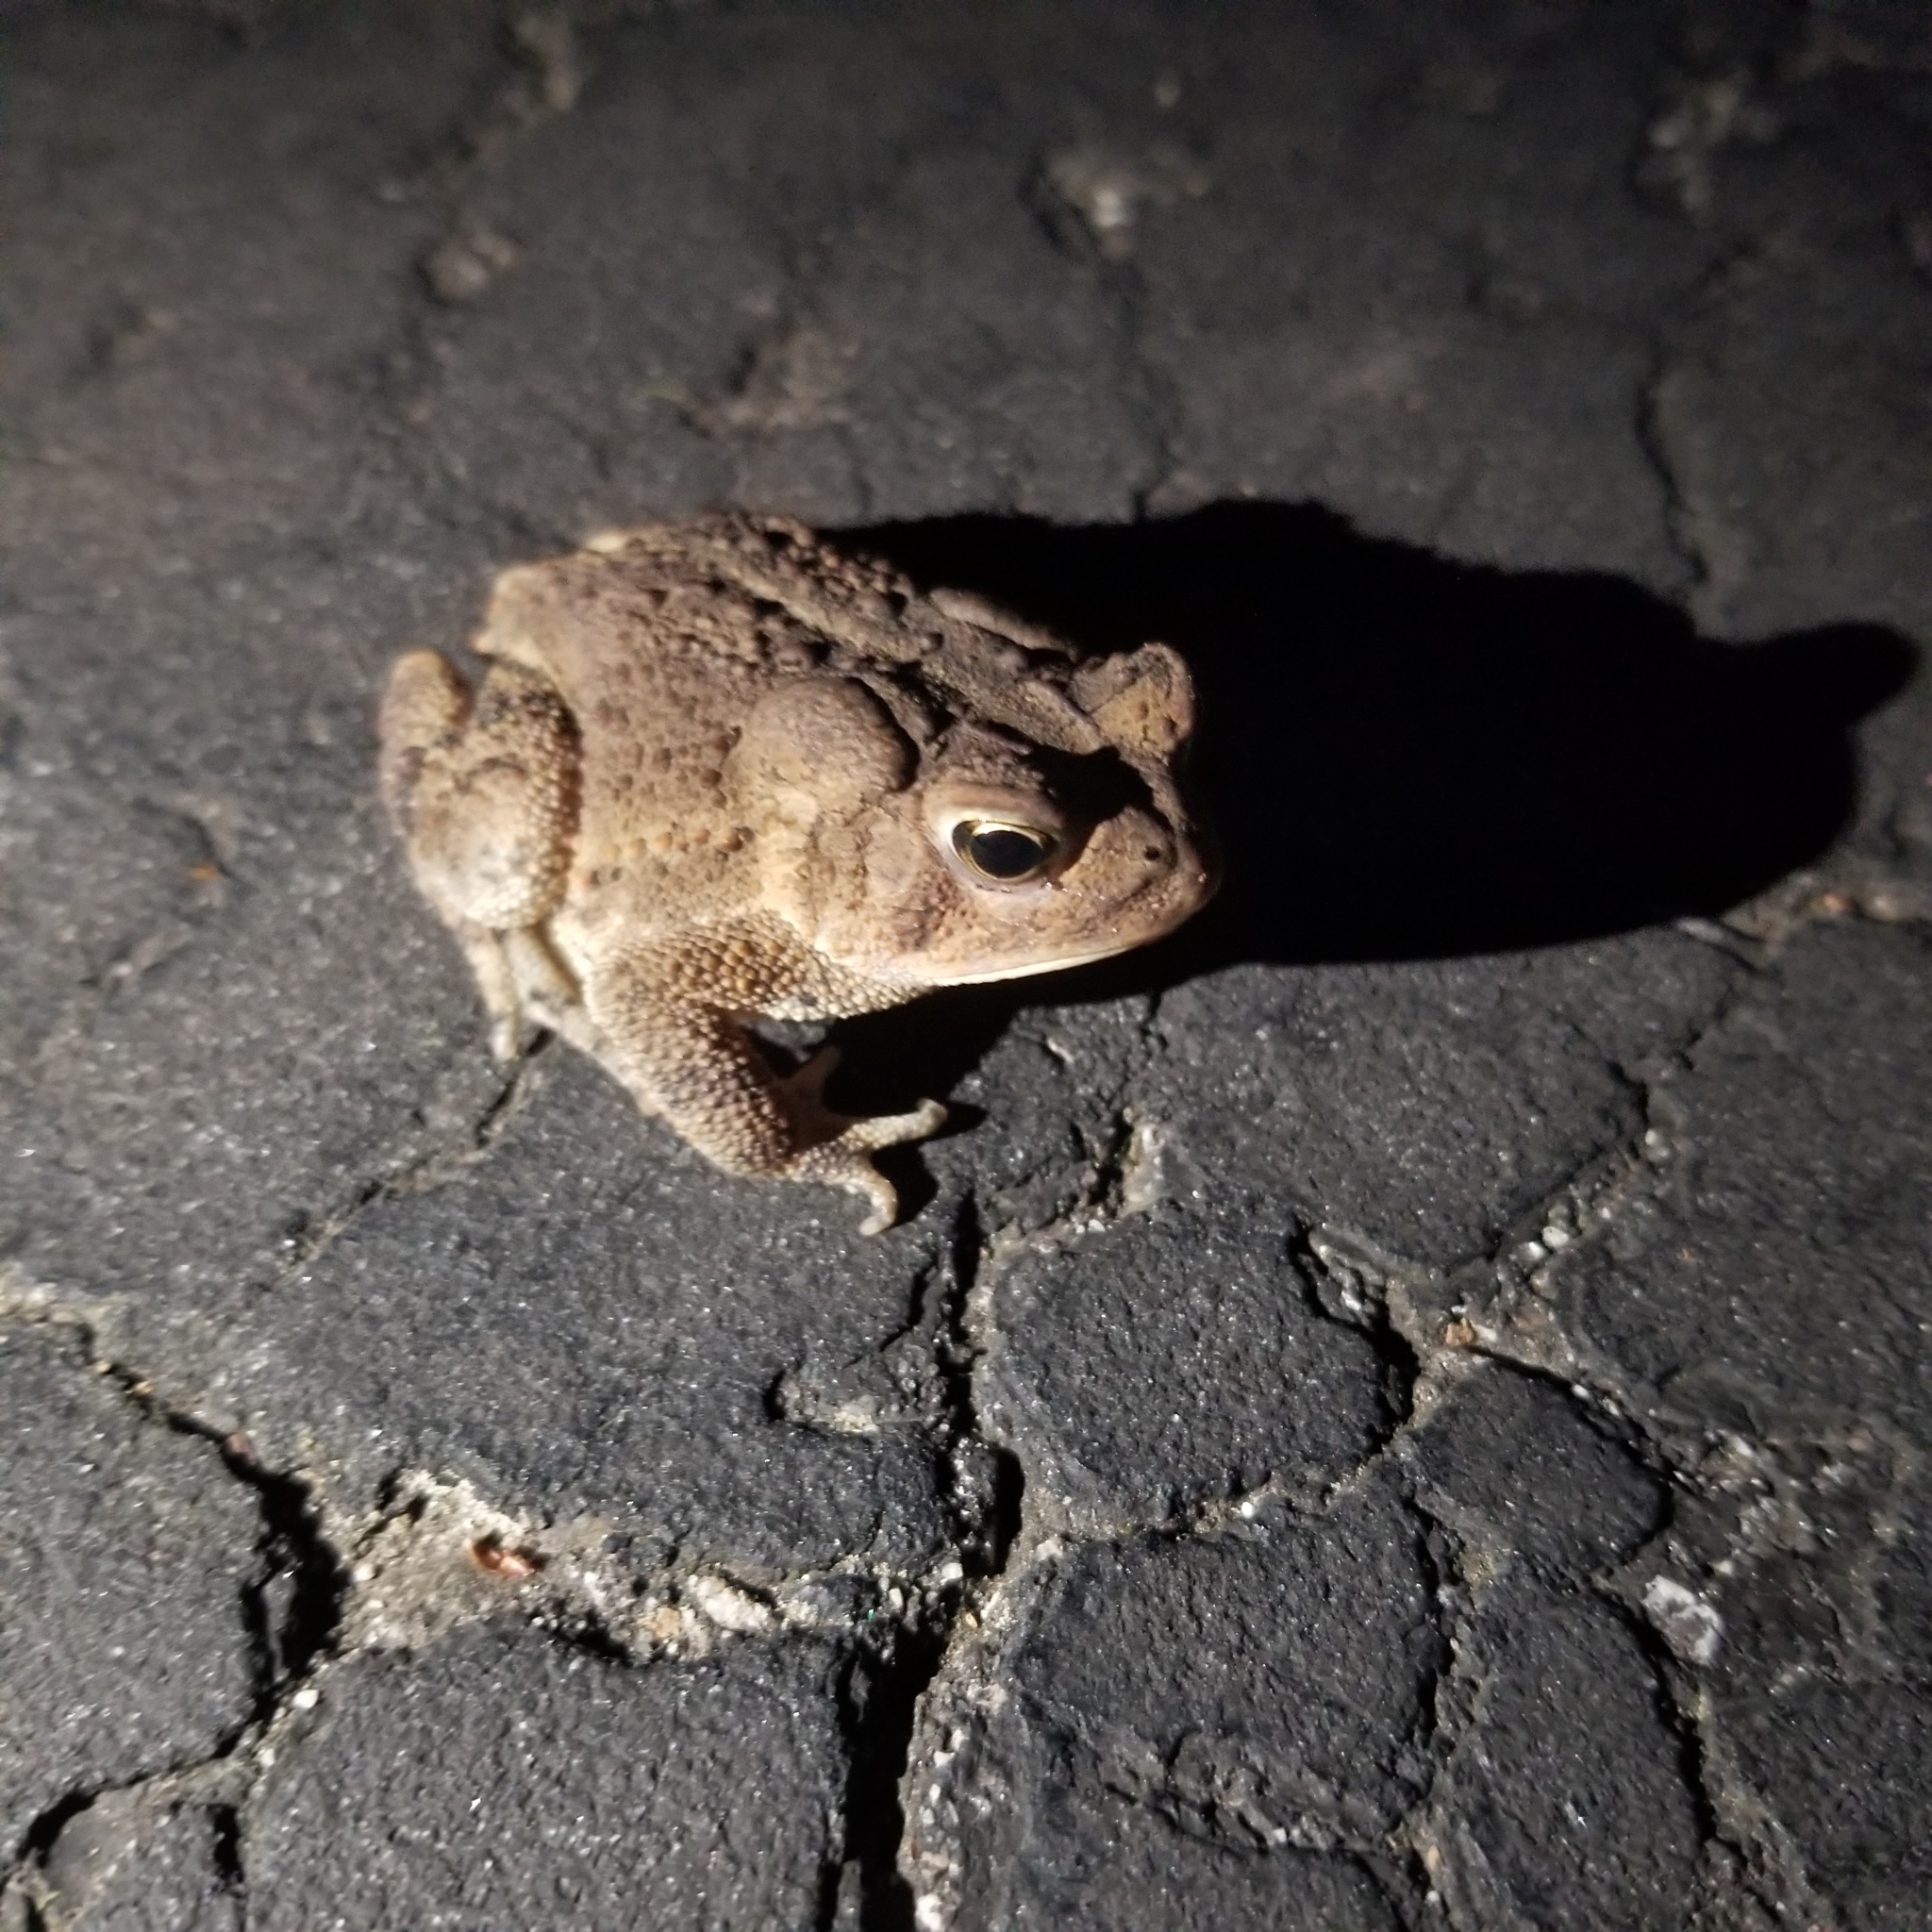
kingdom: Animalia
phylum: Chordata
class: Amphibia
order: Anura
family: Bufonidae
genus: Anaxyrus
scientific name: Anaxyrus americanus
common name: American toad
